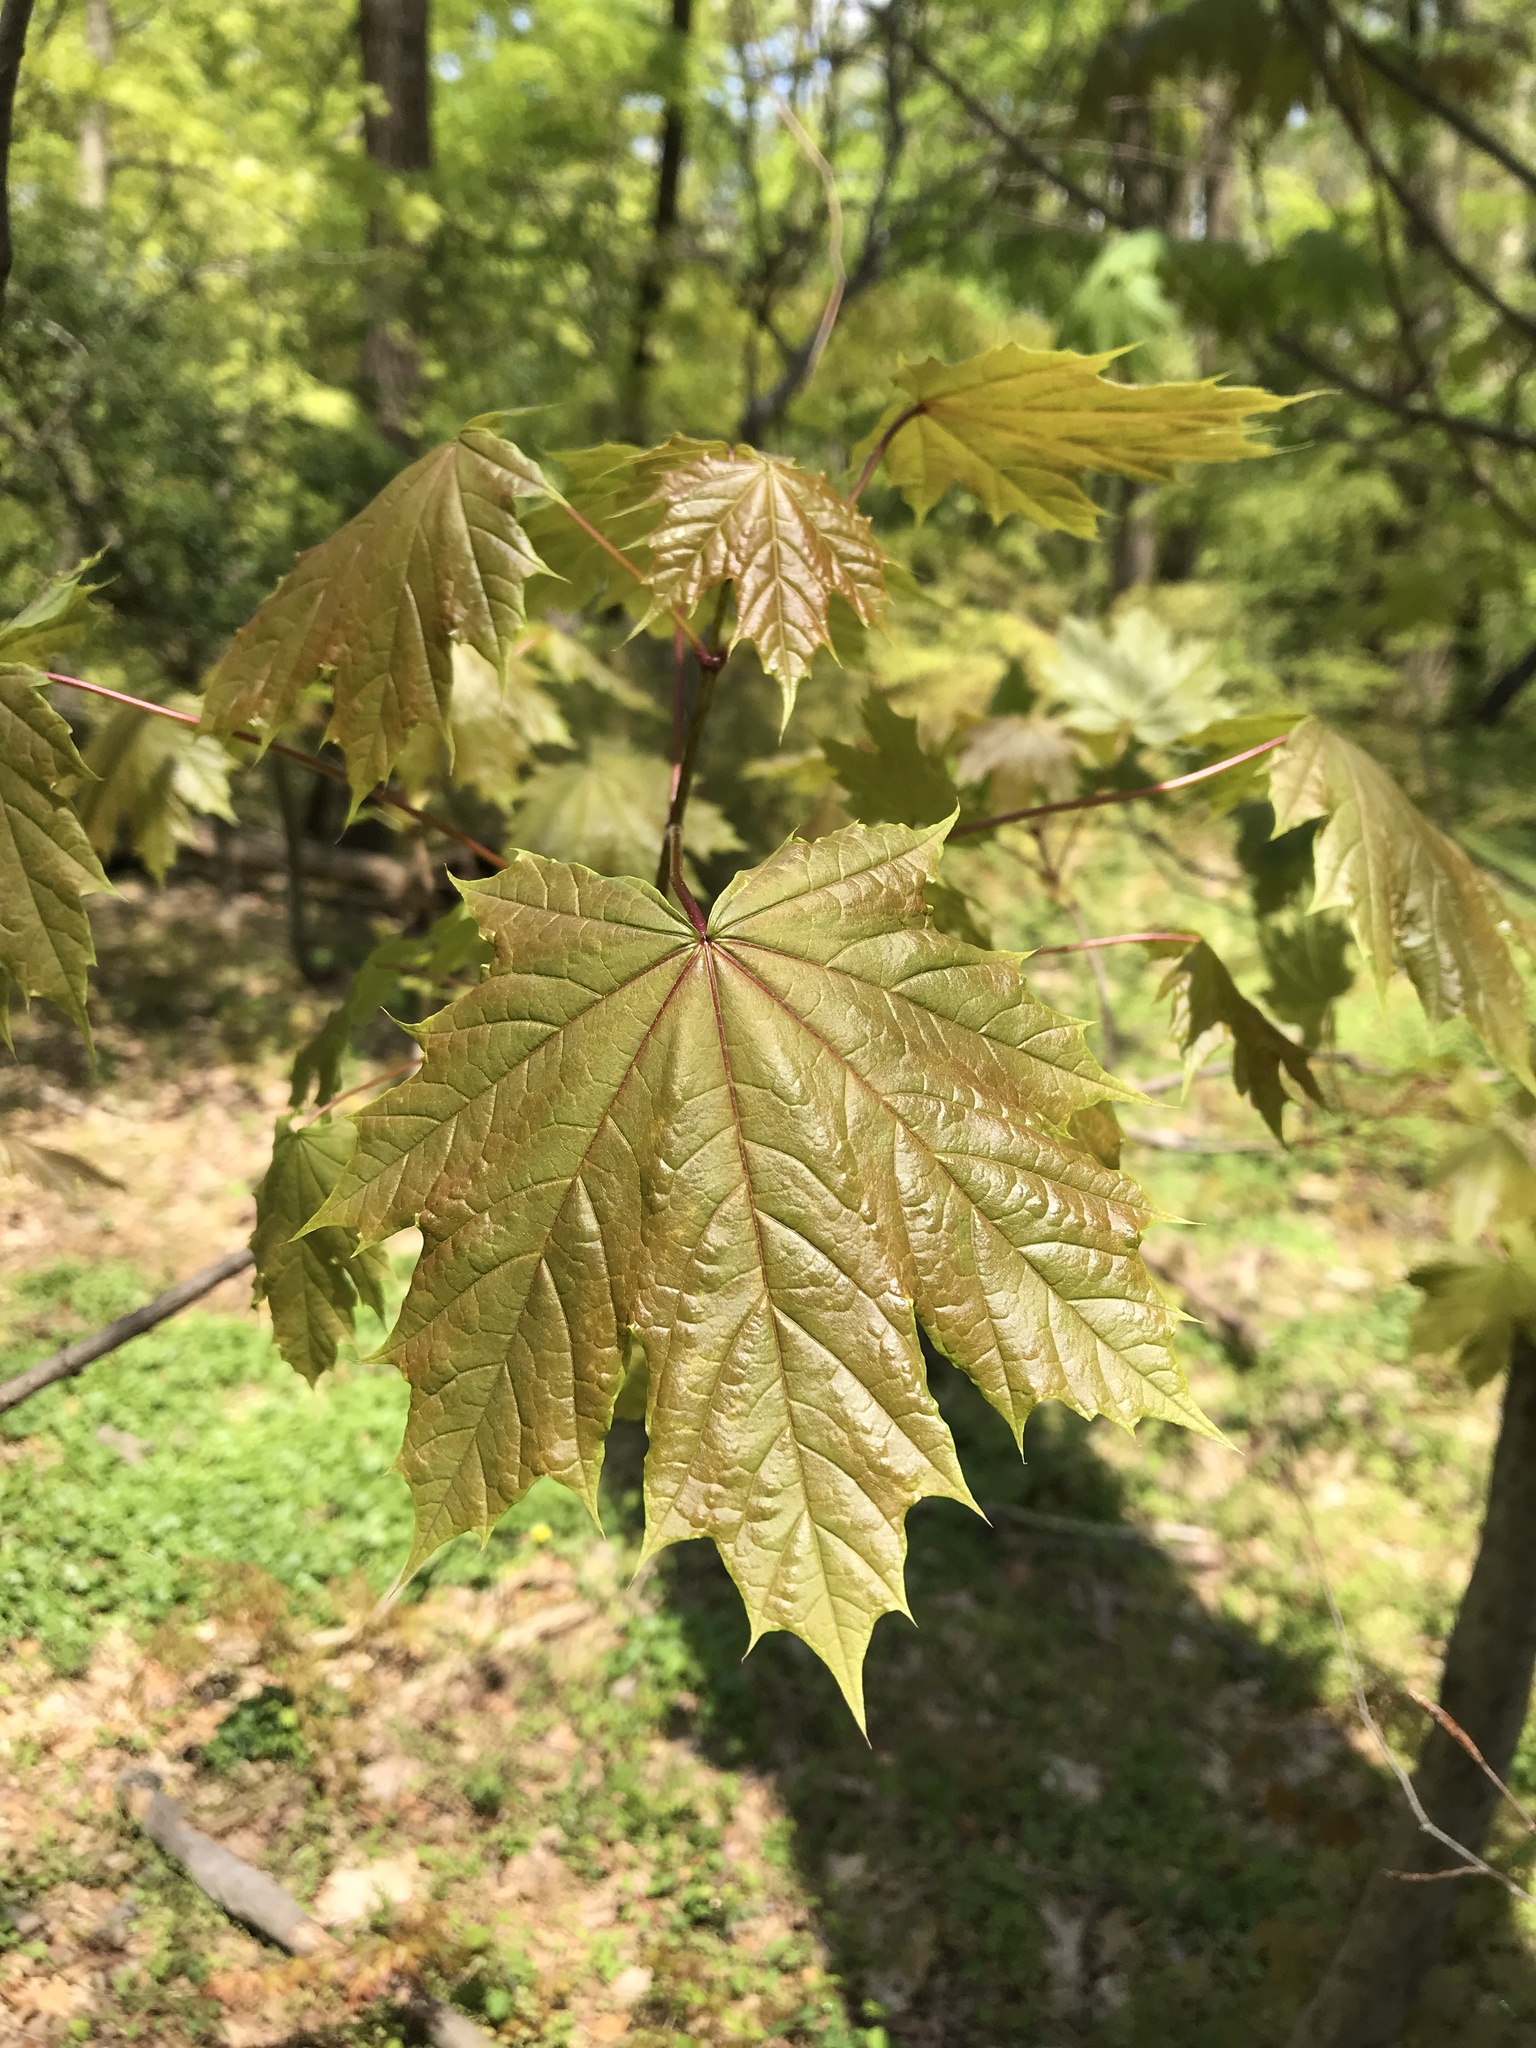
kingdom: Plantae
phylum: Tracheophyta
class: Magnoliopsida
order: Sapindales
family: Sapindaceae
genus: Acer
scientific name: Acer platanoides
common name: Norway maple
